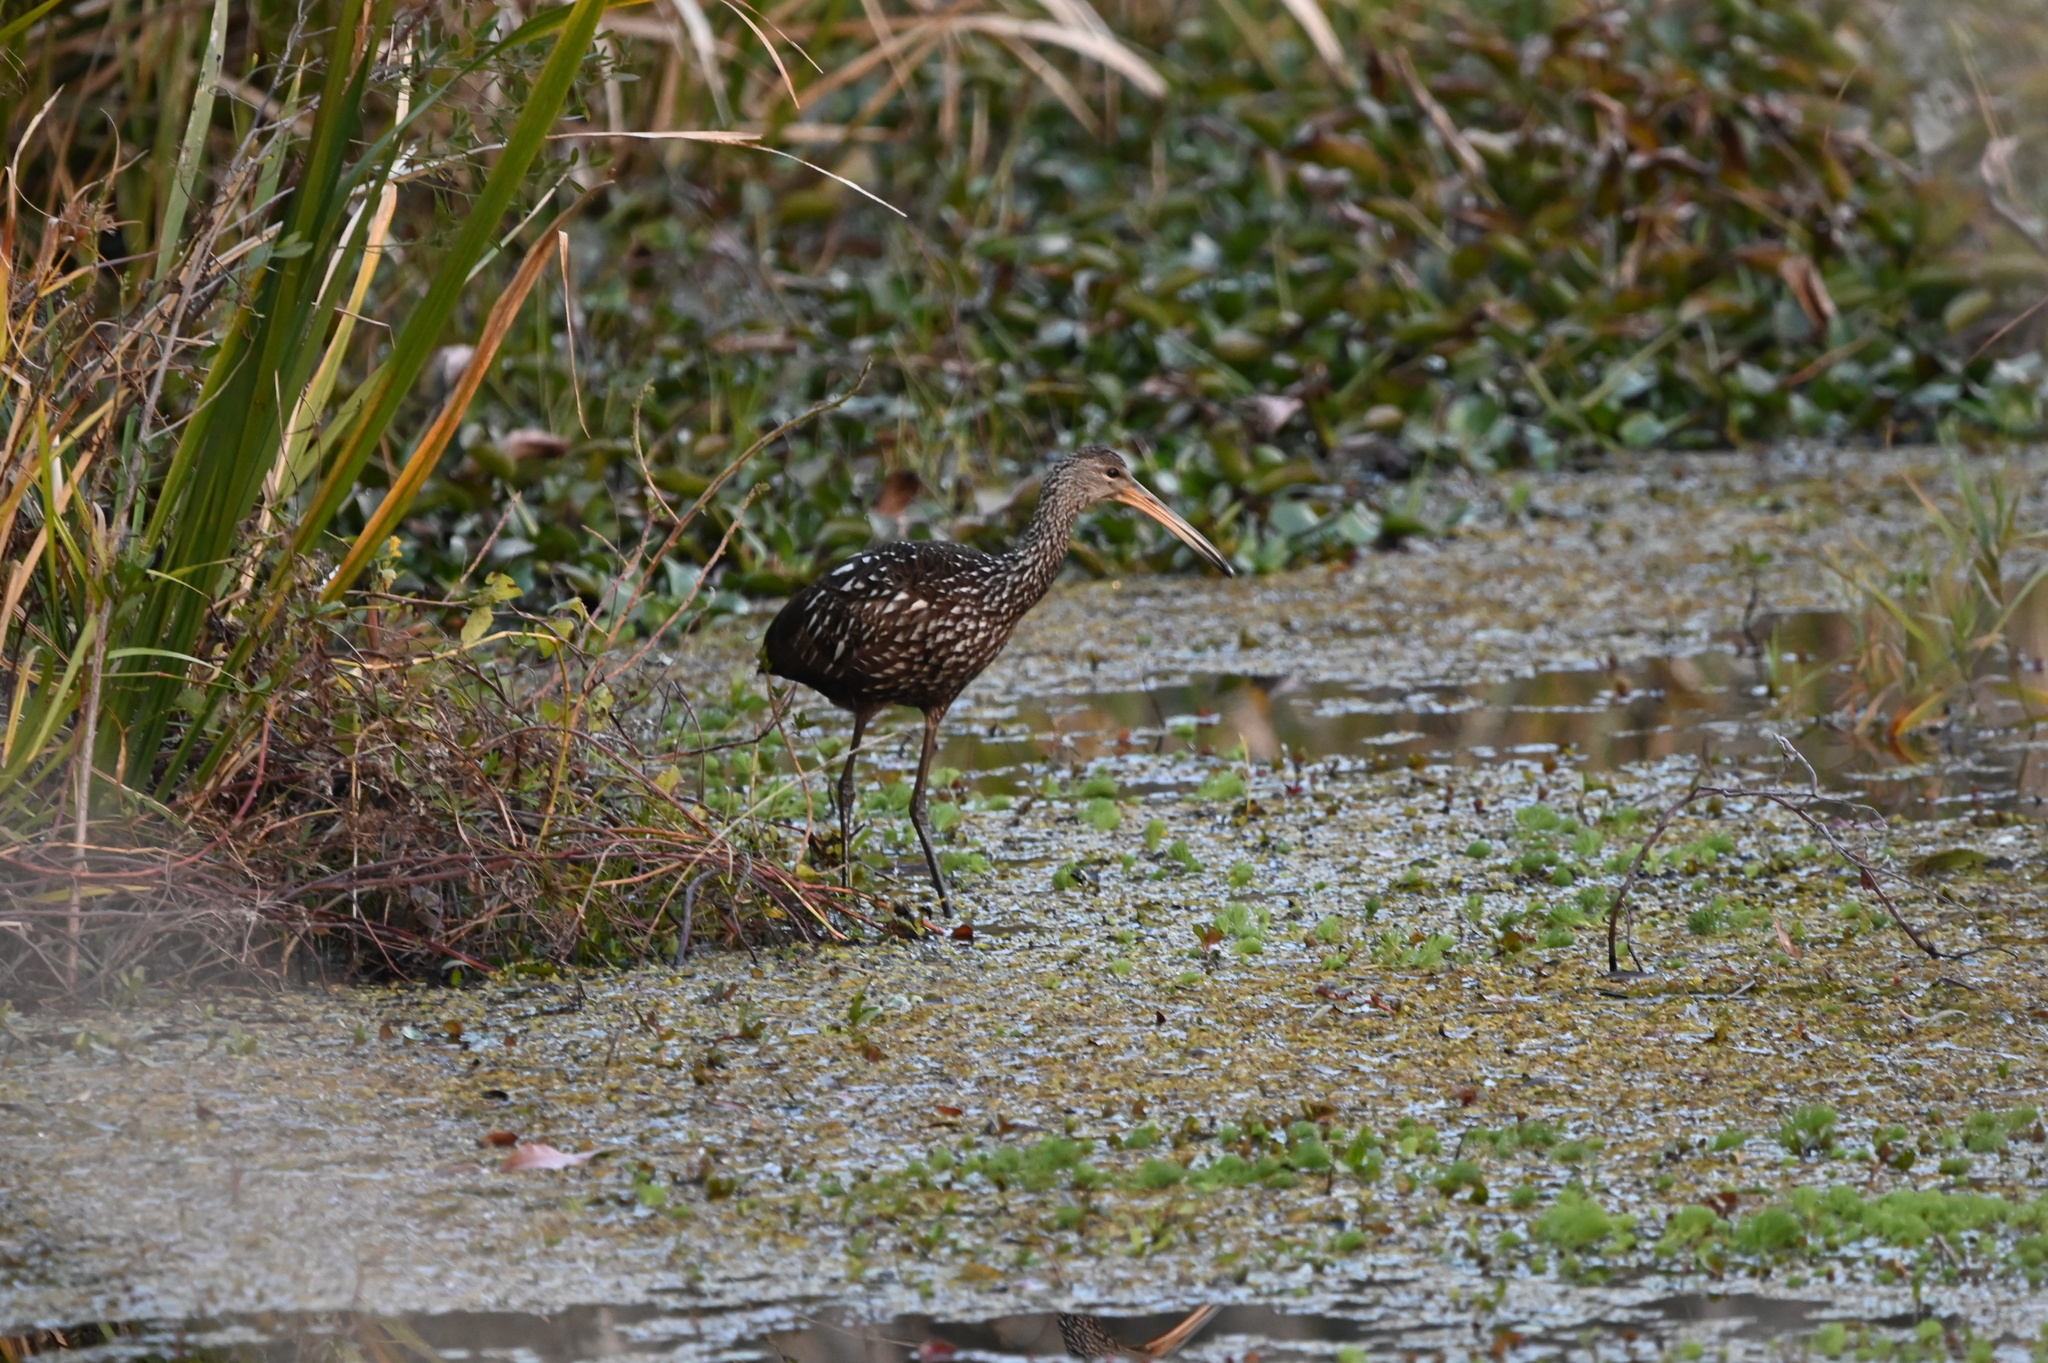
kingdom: Animalia
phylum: Chordata
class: Aves
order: Gruiformes
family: Aramidae
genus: Aramus
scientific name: Aramus guarauna
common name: Limpkin
